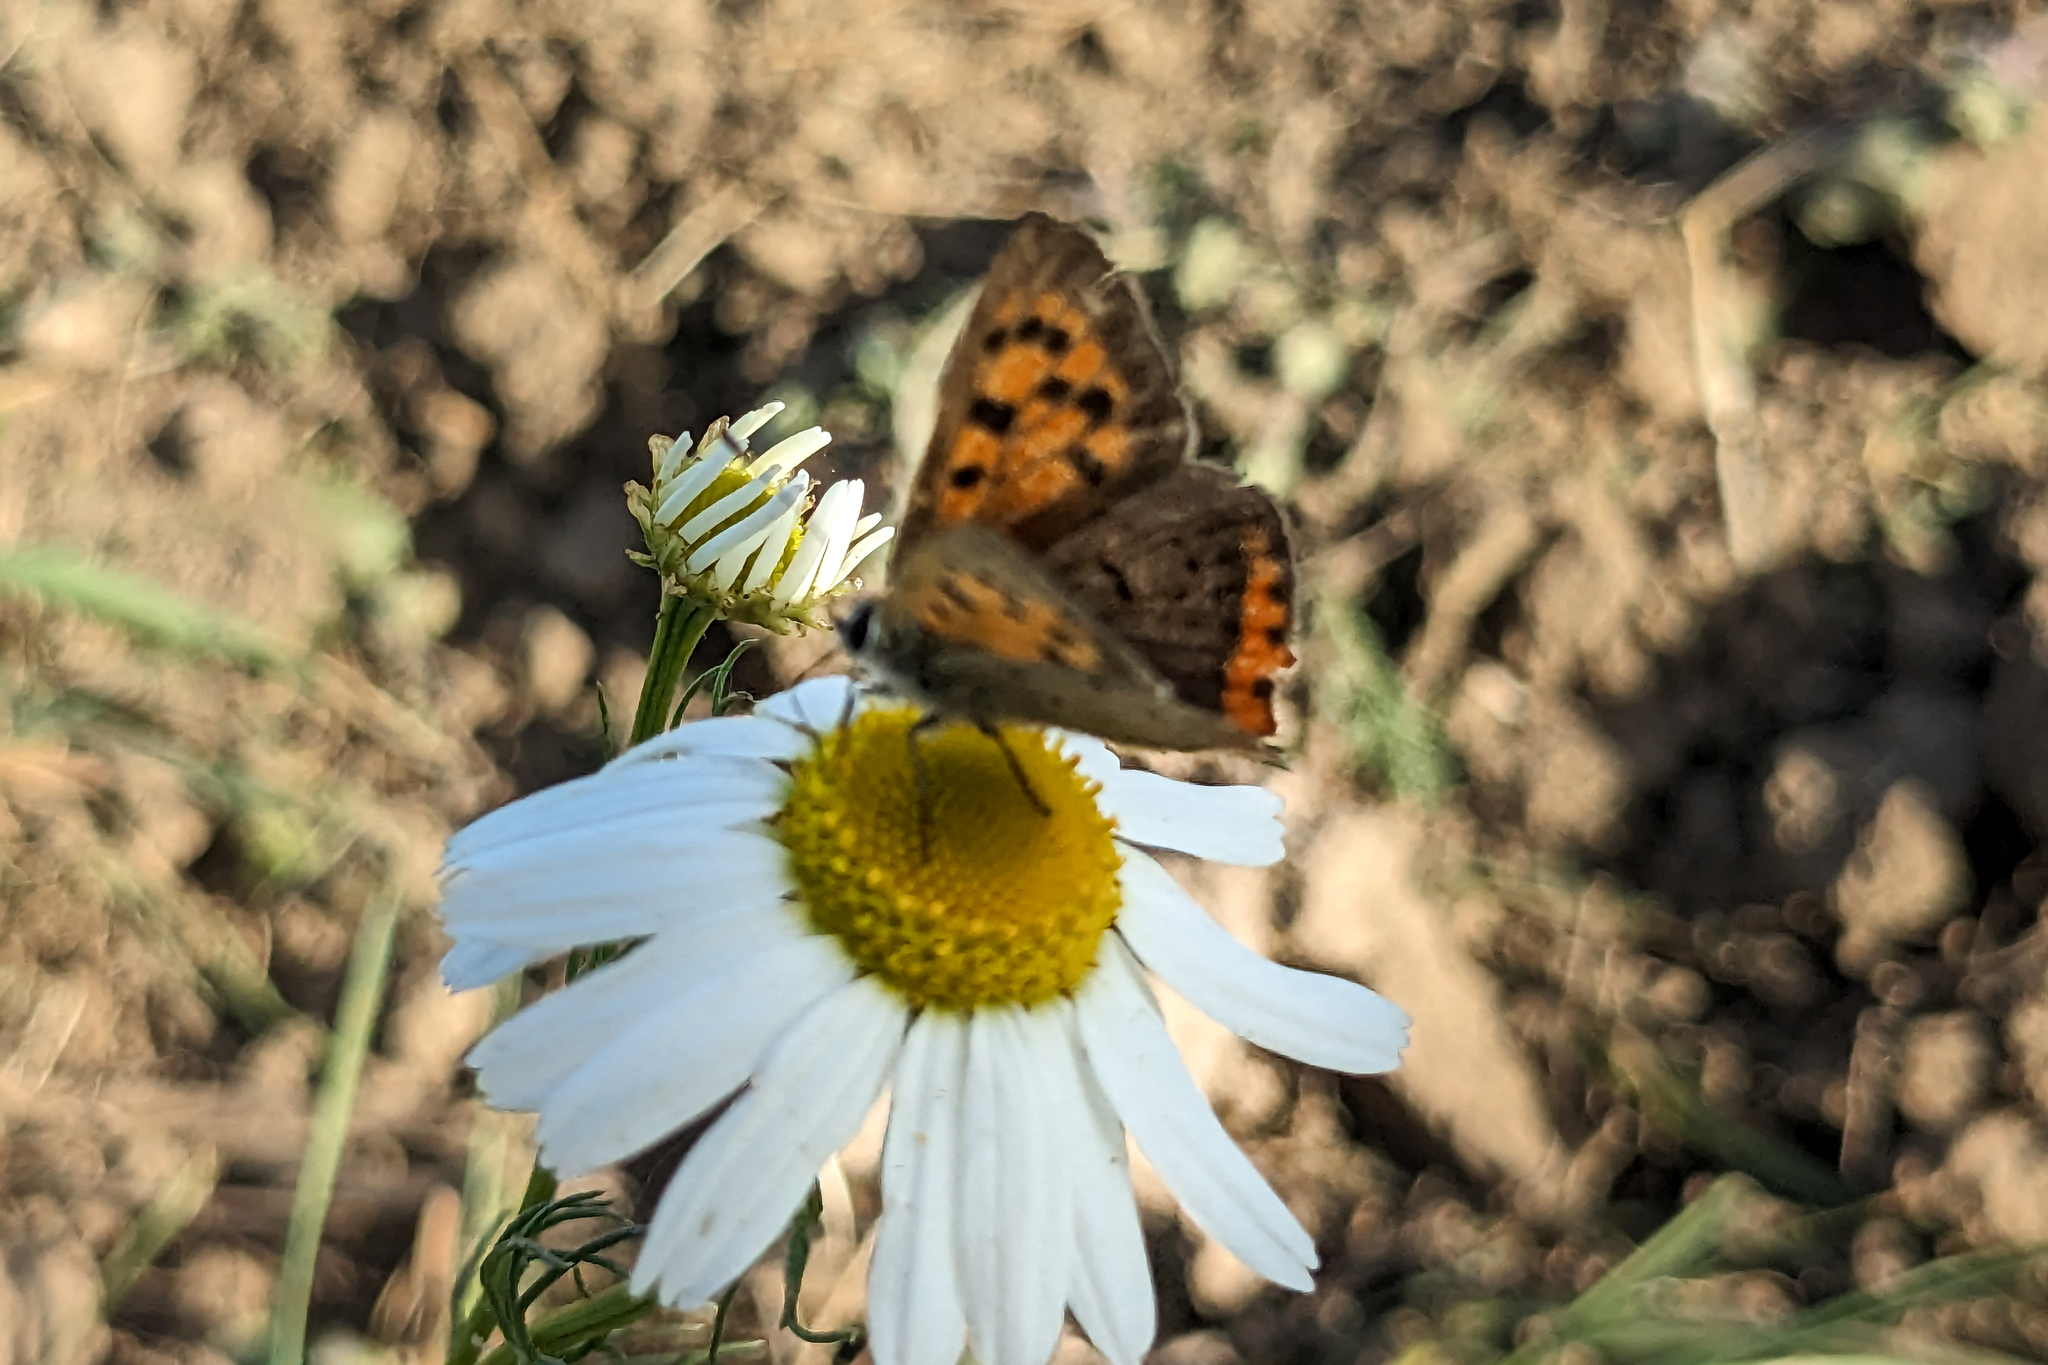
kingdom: Animalia
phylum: Arthropoda
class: Insecta
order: Lepidoptera
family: Lycaenidae
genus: Lycaena
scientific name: Lycaena phlaeas
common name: Small copper
